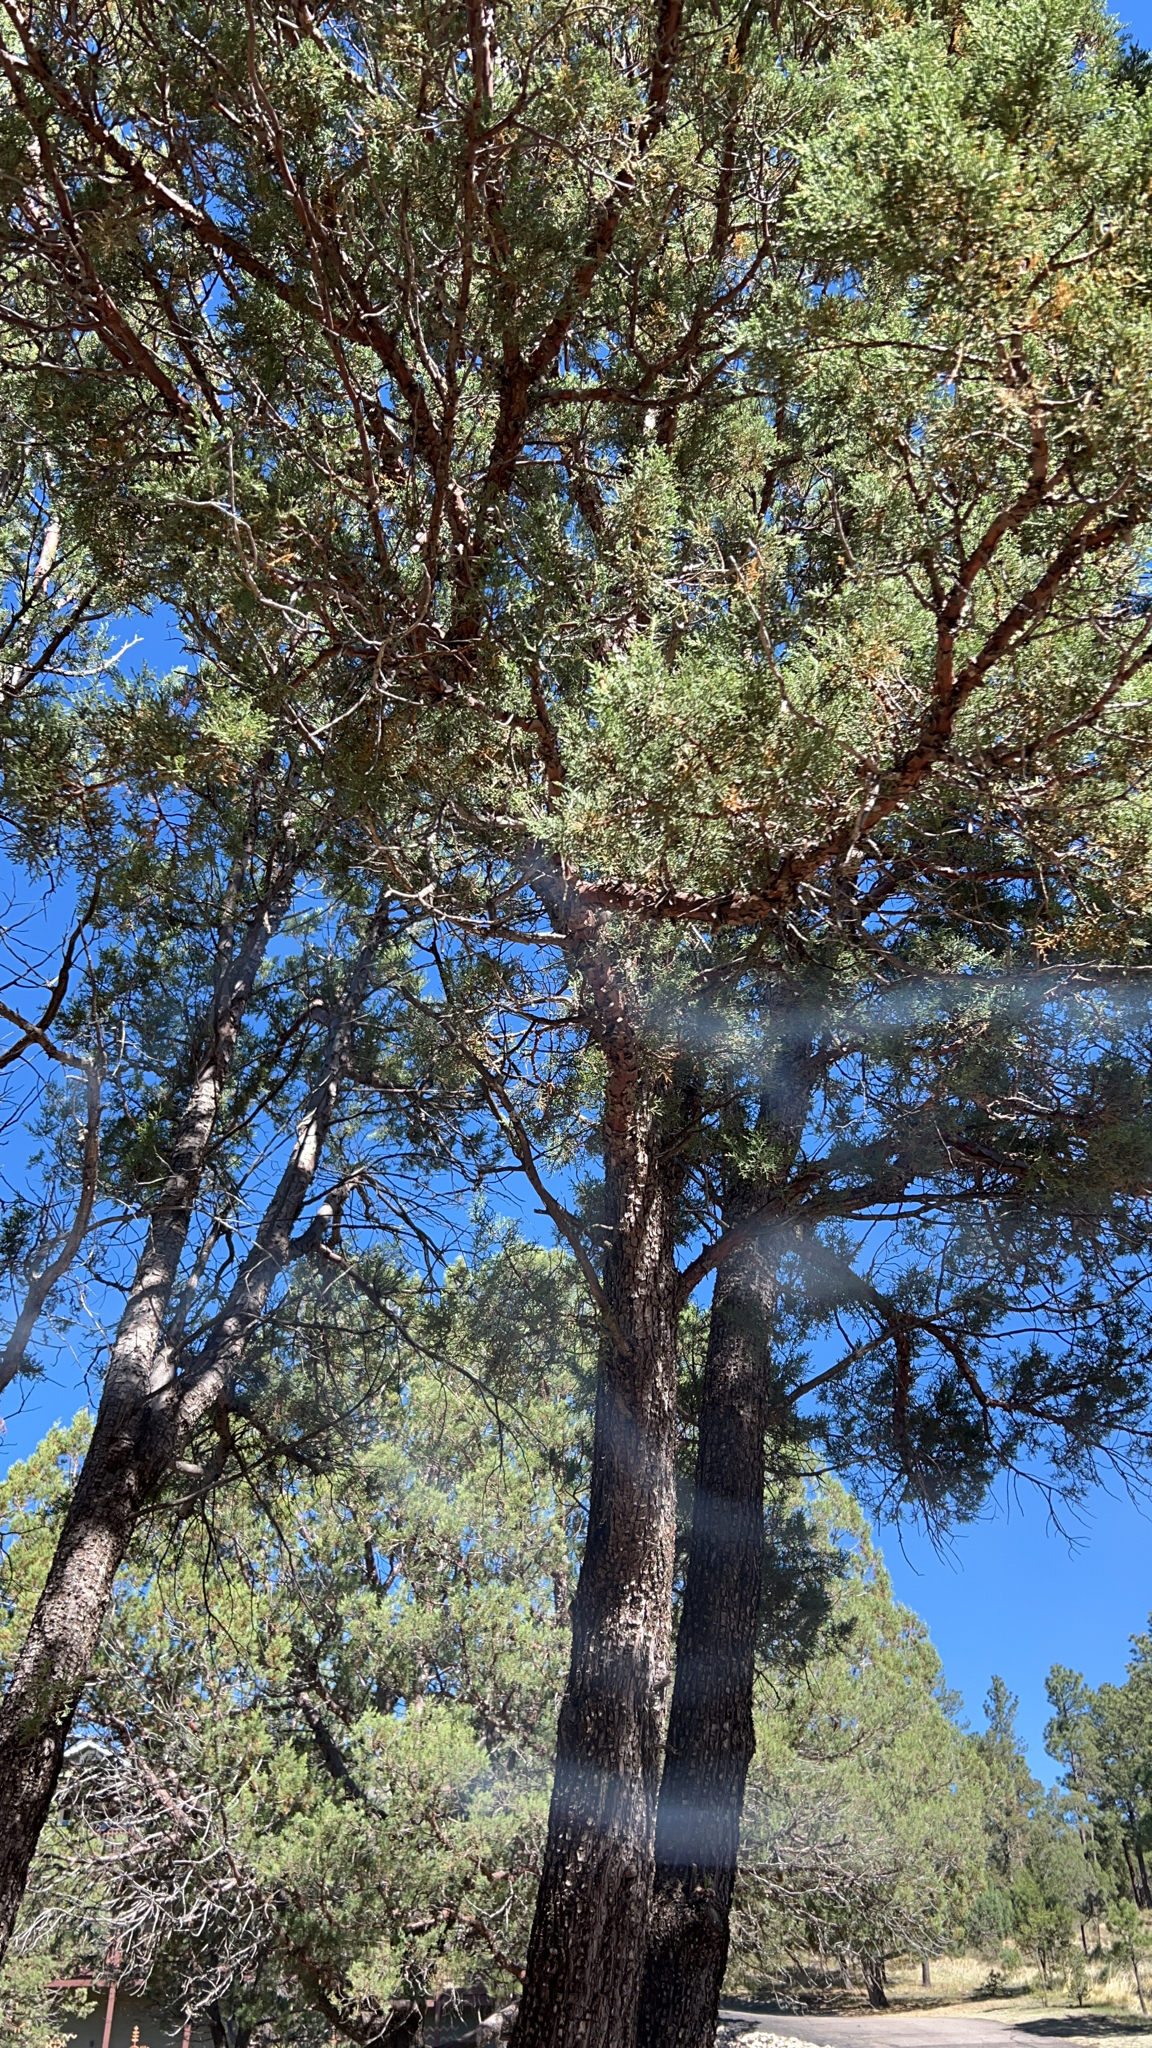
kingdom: Plantae
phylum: Tracheophyta
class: Pinopsida
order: Pinales
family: Cupressaceae
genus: Juniperus
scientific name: Juniperus deppeana
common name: Alligator juniper
